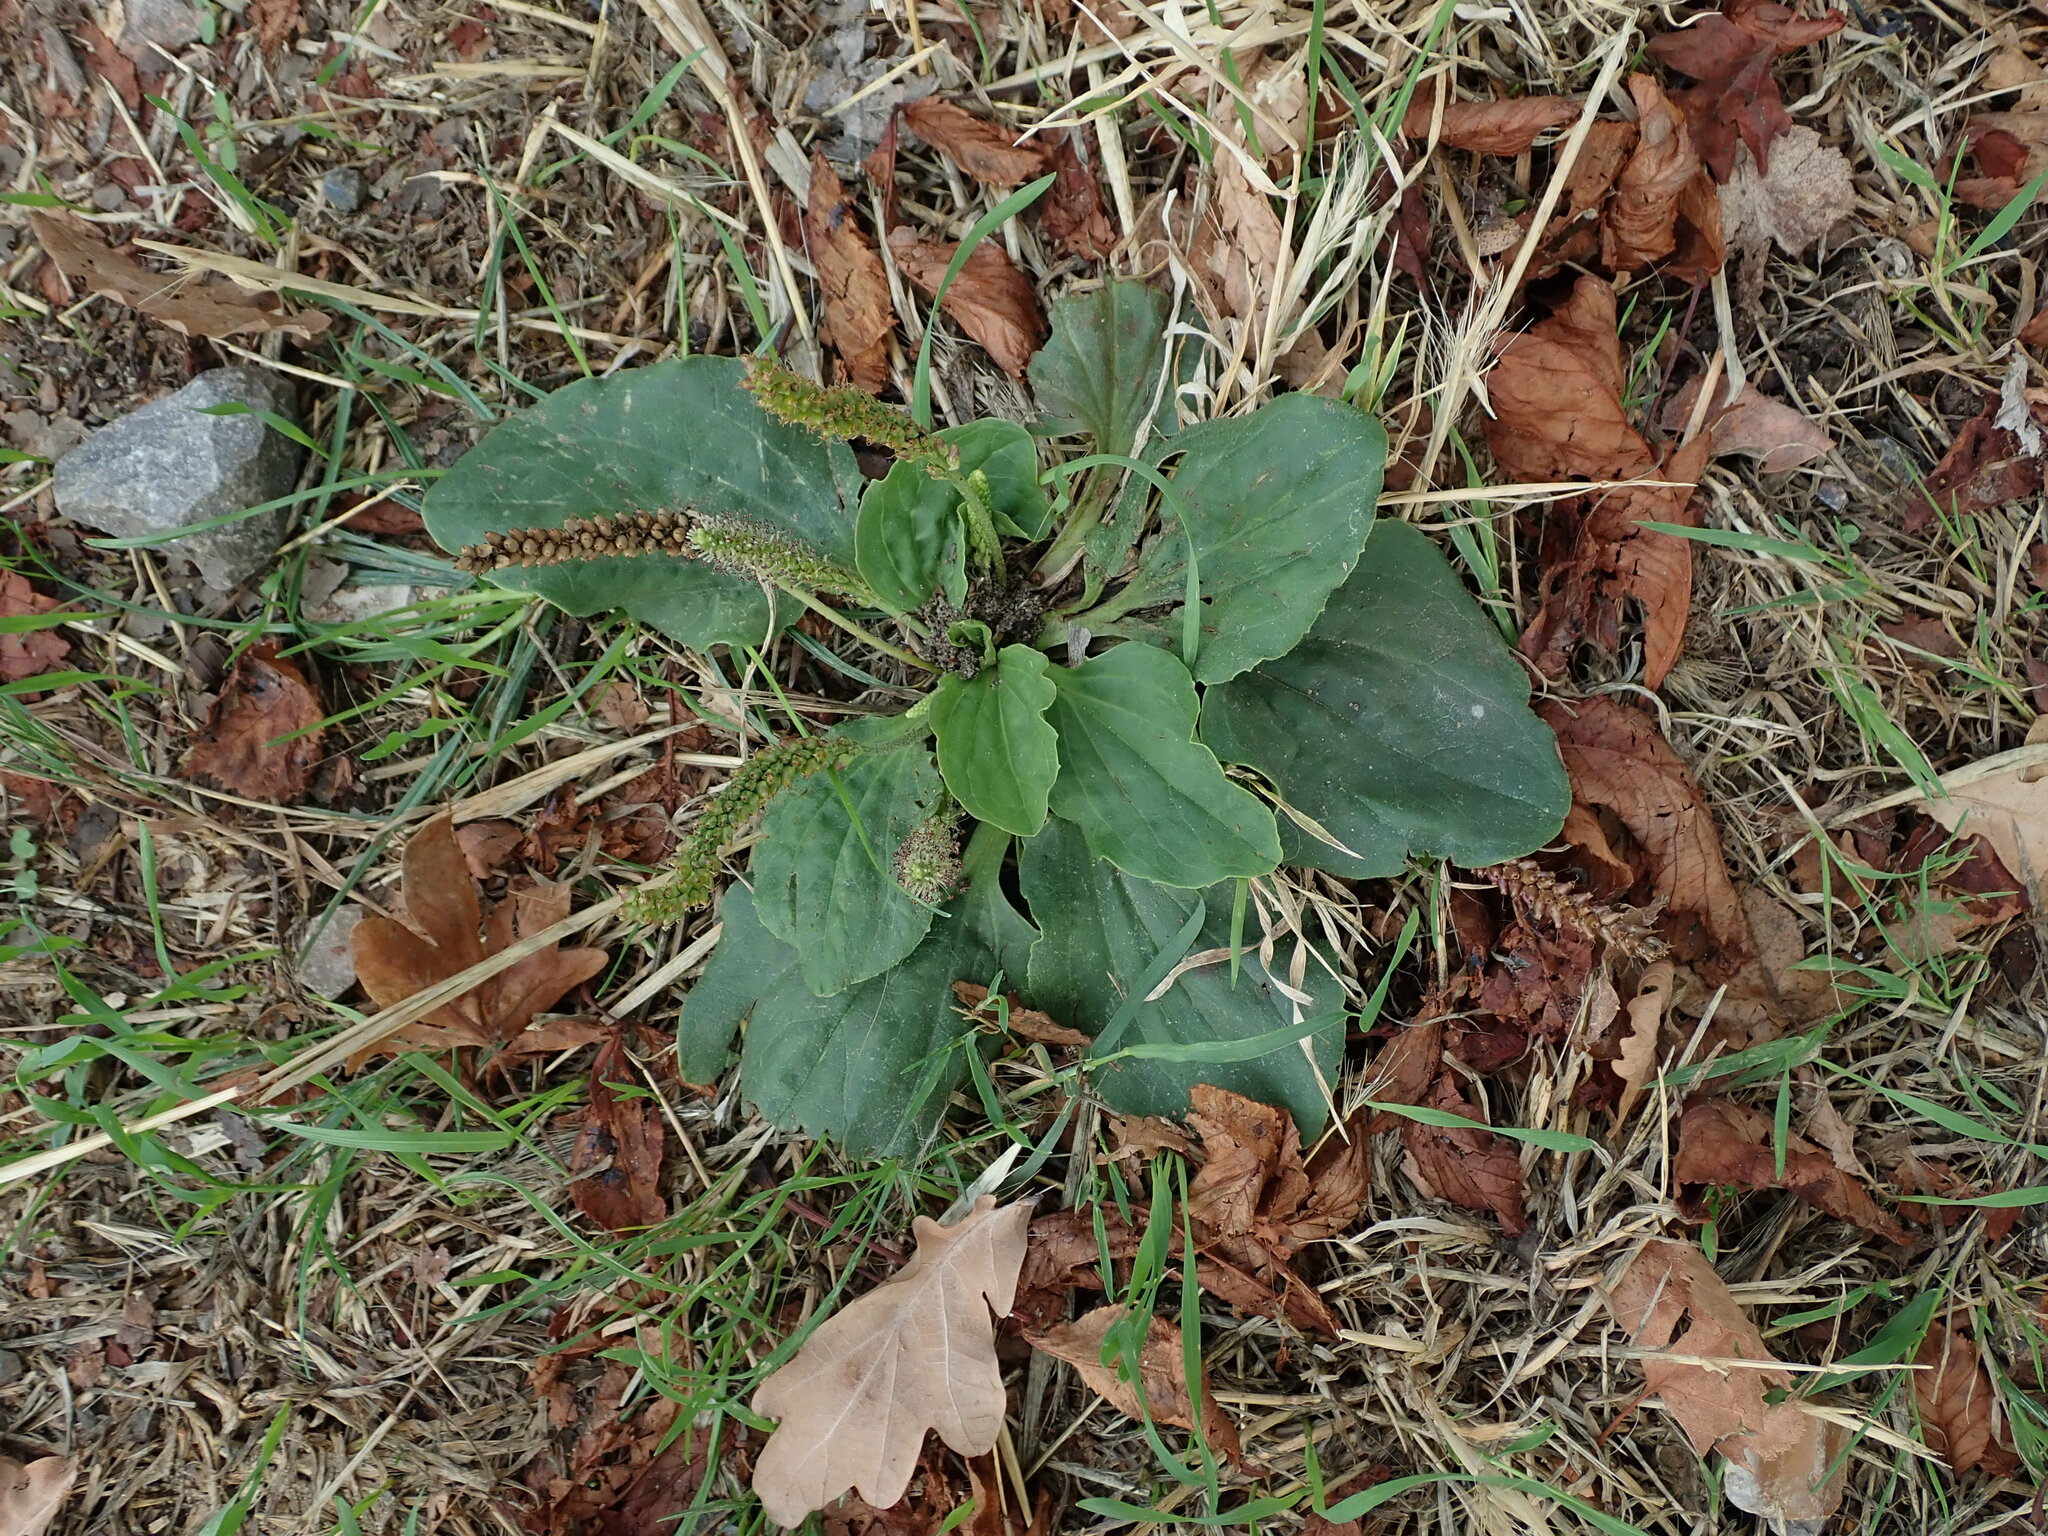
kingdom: Plantae
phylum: Tracheophyta
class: Magnoliopsida
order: Lamiales
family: Plantaginaceae
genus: Plantago
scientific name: Plantago major
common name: Common plantain
